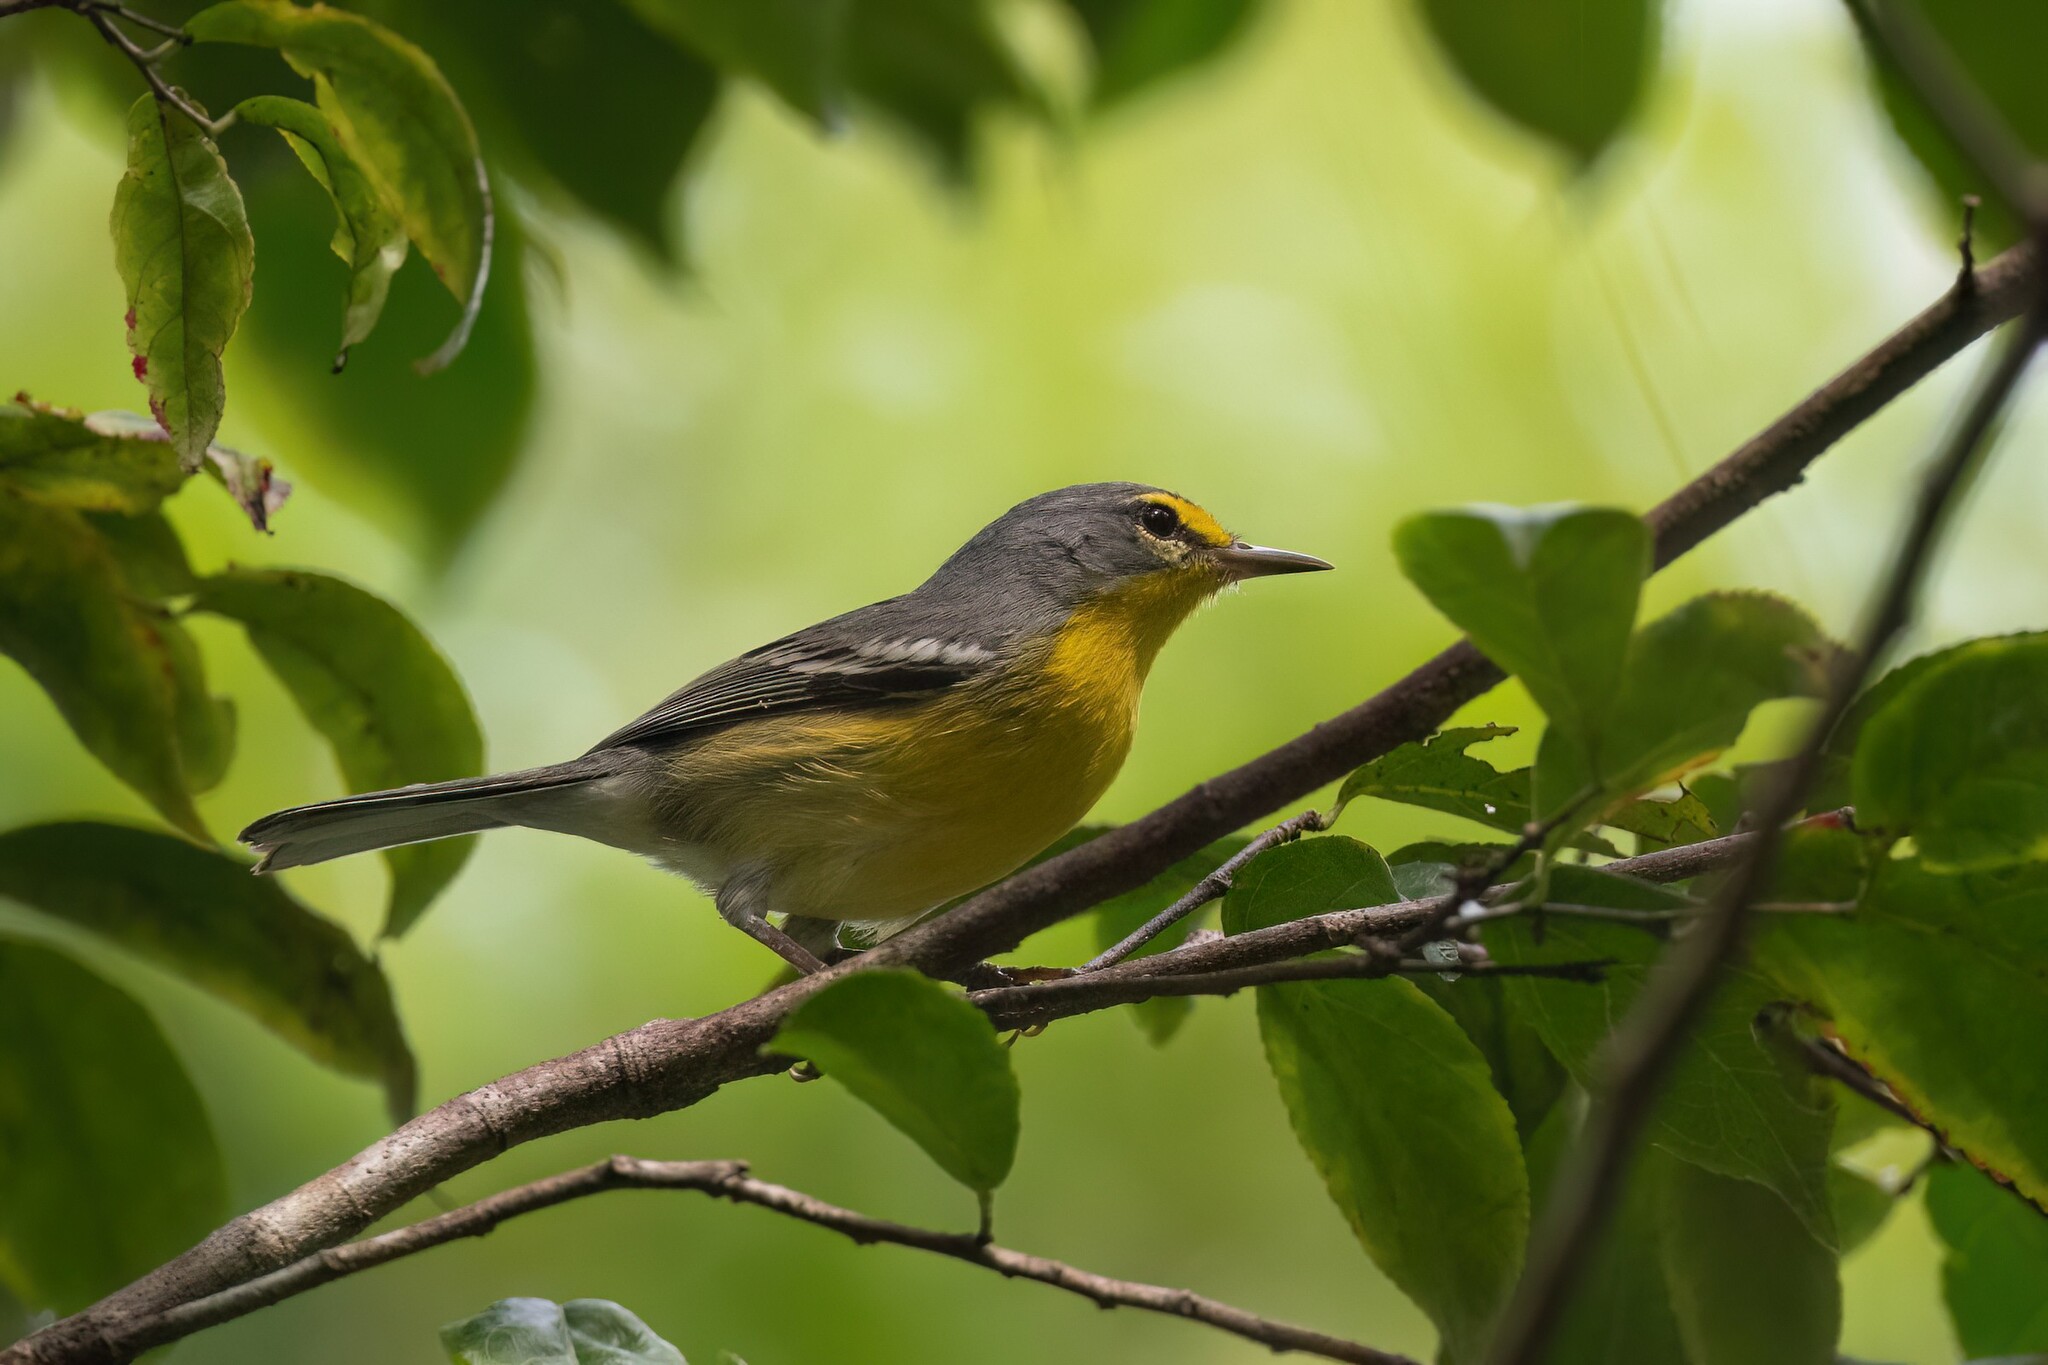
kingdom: Animalia
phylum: Chordata
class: Aves
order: Passeriformes
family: Parulidae
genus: Setophaga
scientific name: Setophaga adelaidae
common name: Adelaide's warbler
